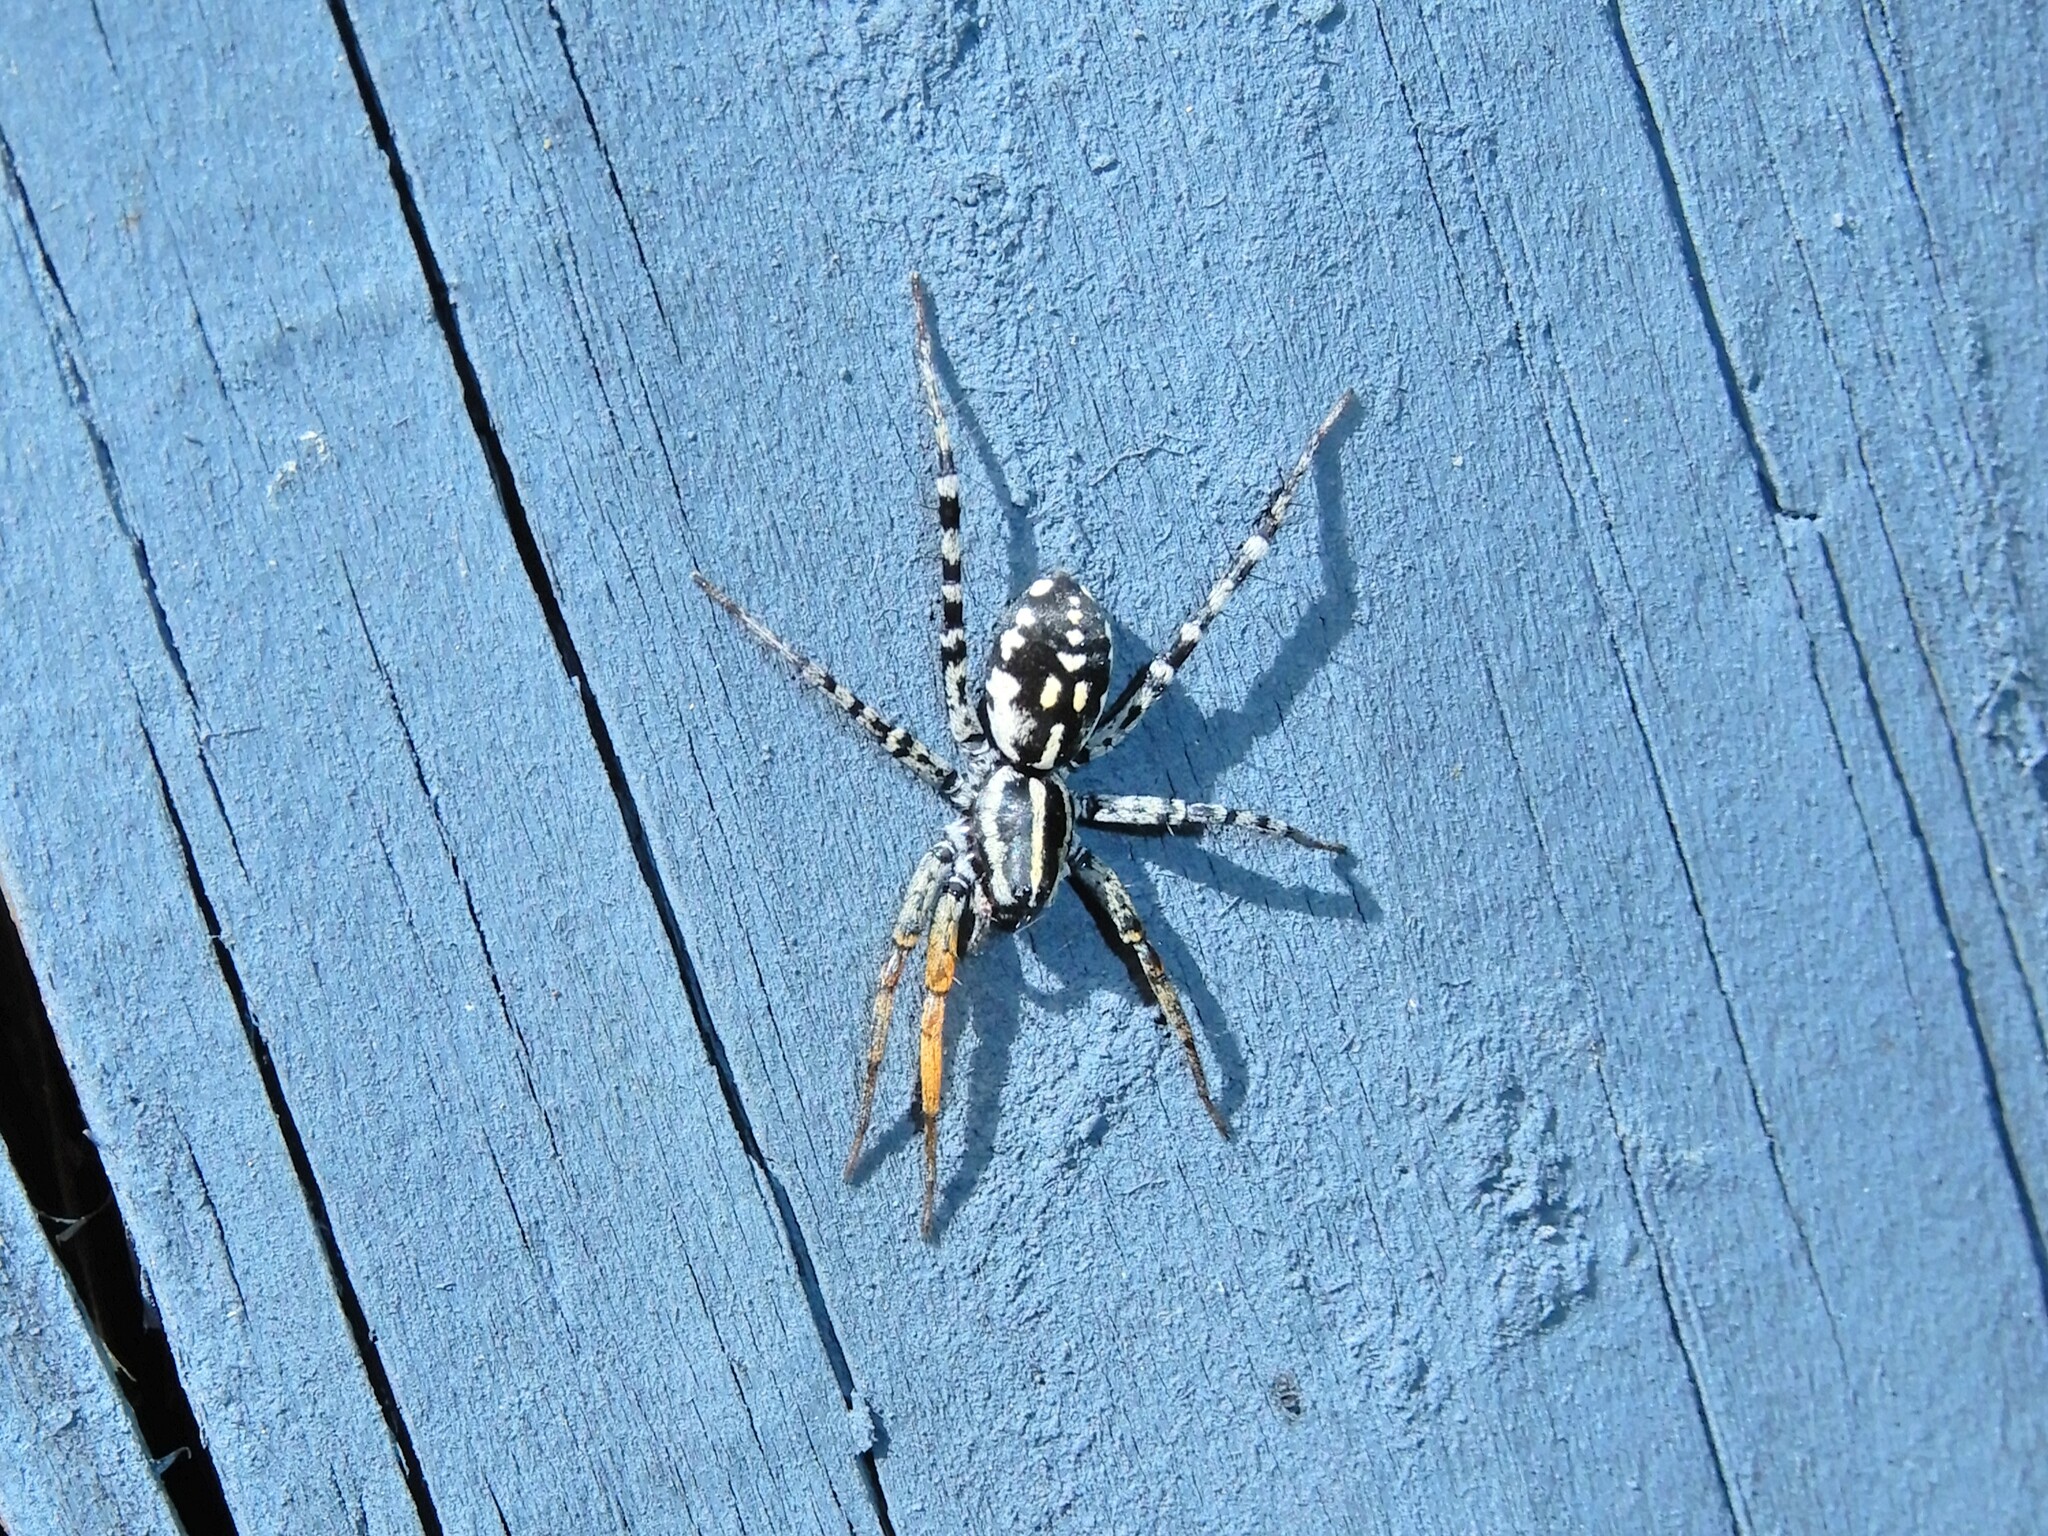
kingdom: Animalia
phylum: Arthropoda
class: Arachnida
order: Araneae
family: Corinnidae
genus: Nyssus
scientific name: Nyssus coloripes
